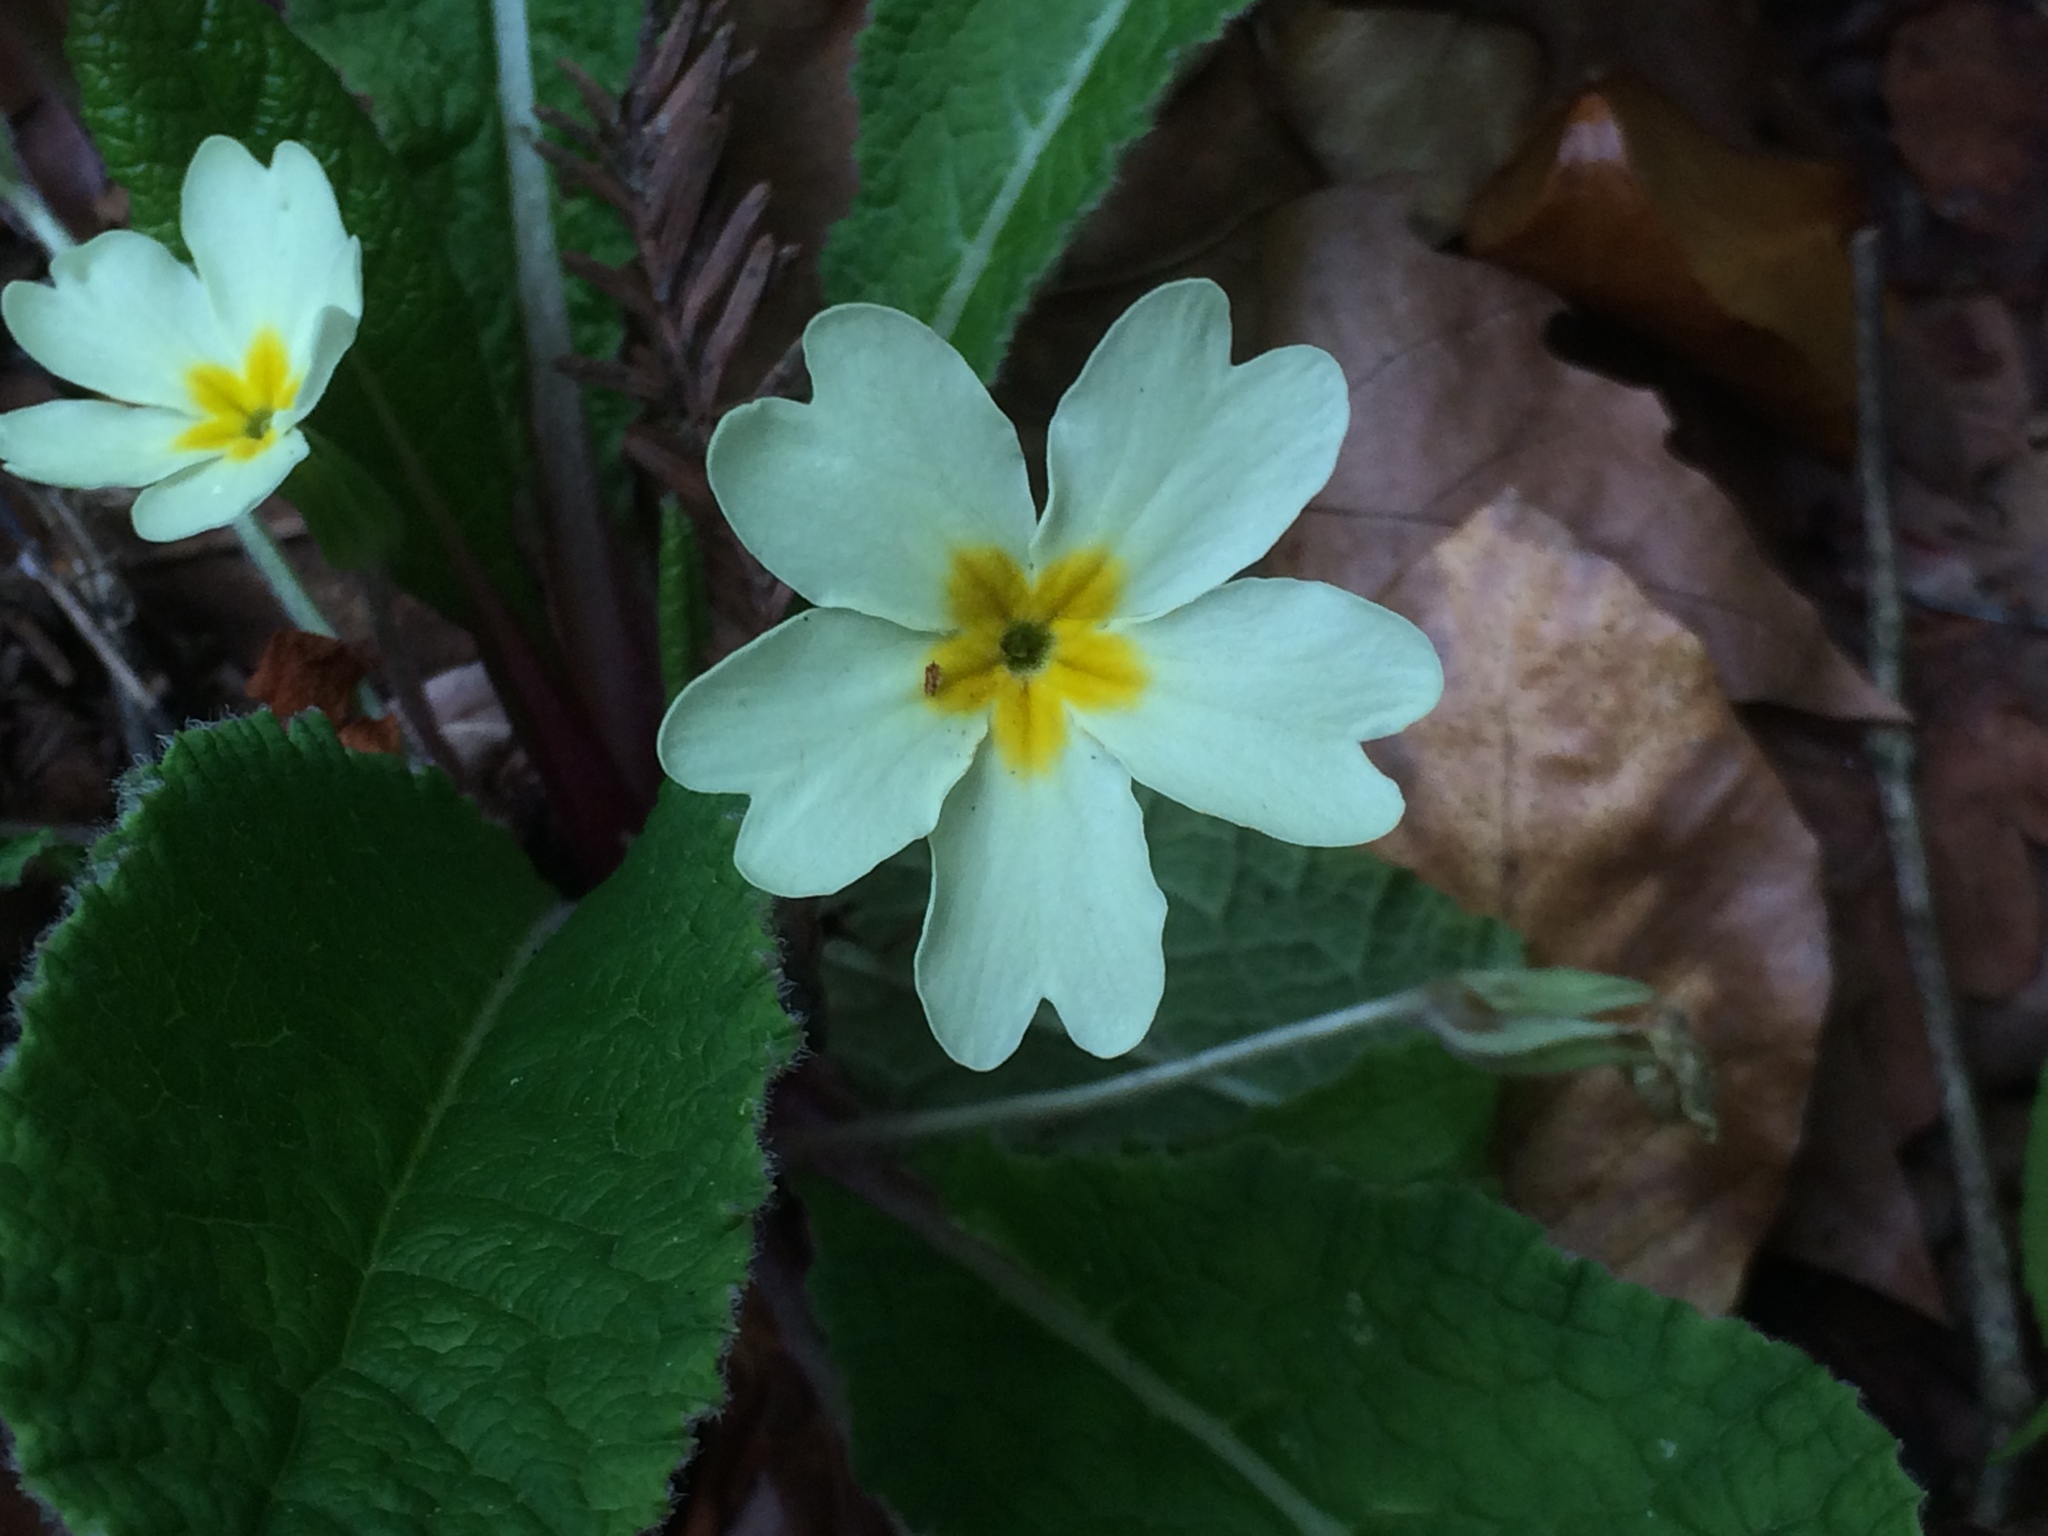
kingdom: Plantae
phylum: Tracheophyta
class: Magnoliopsida
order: Ericales
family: Primulaceae
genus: Primula
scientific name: Primula vulgaris
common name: Primrose
